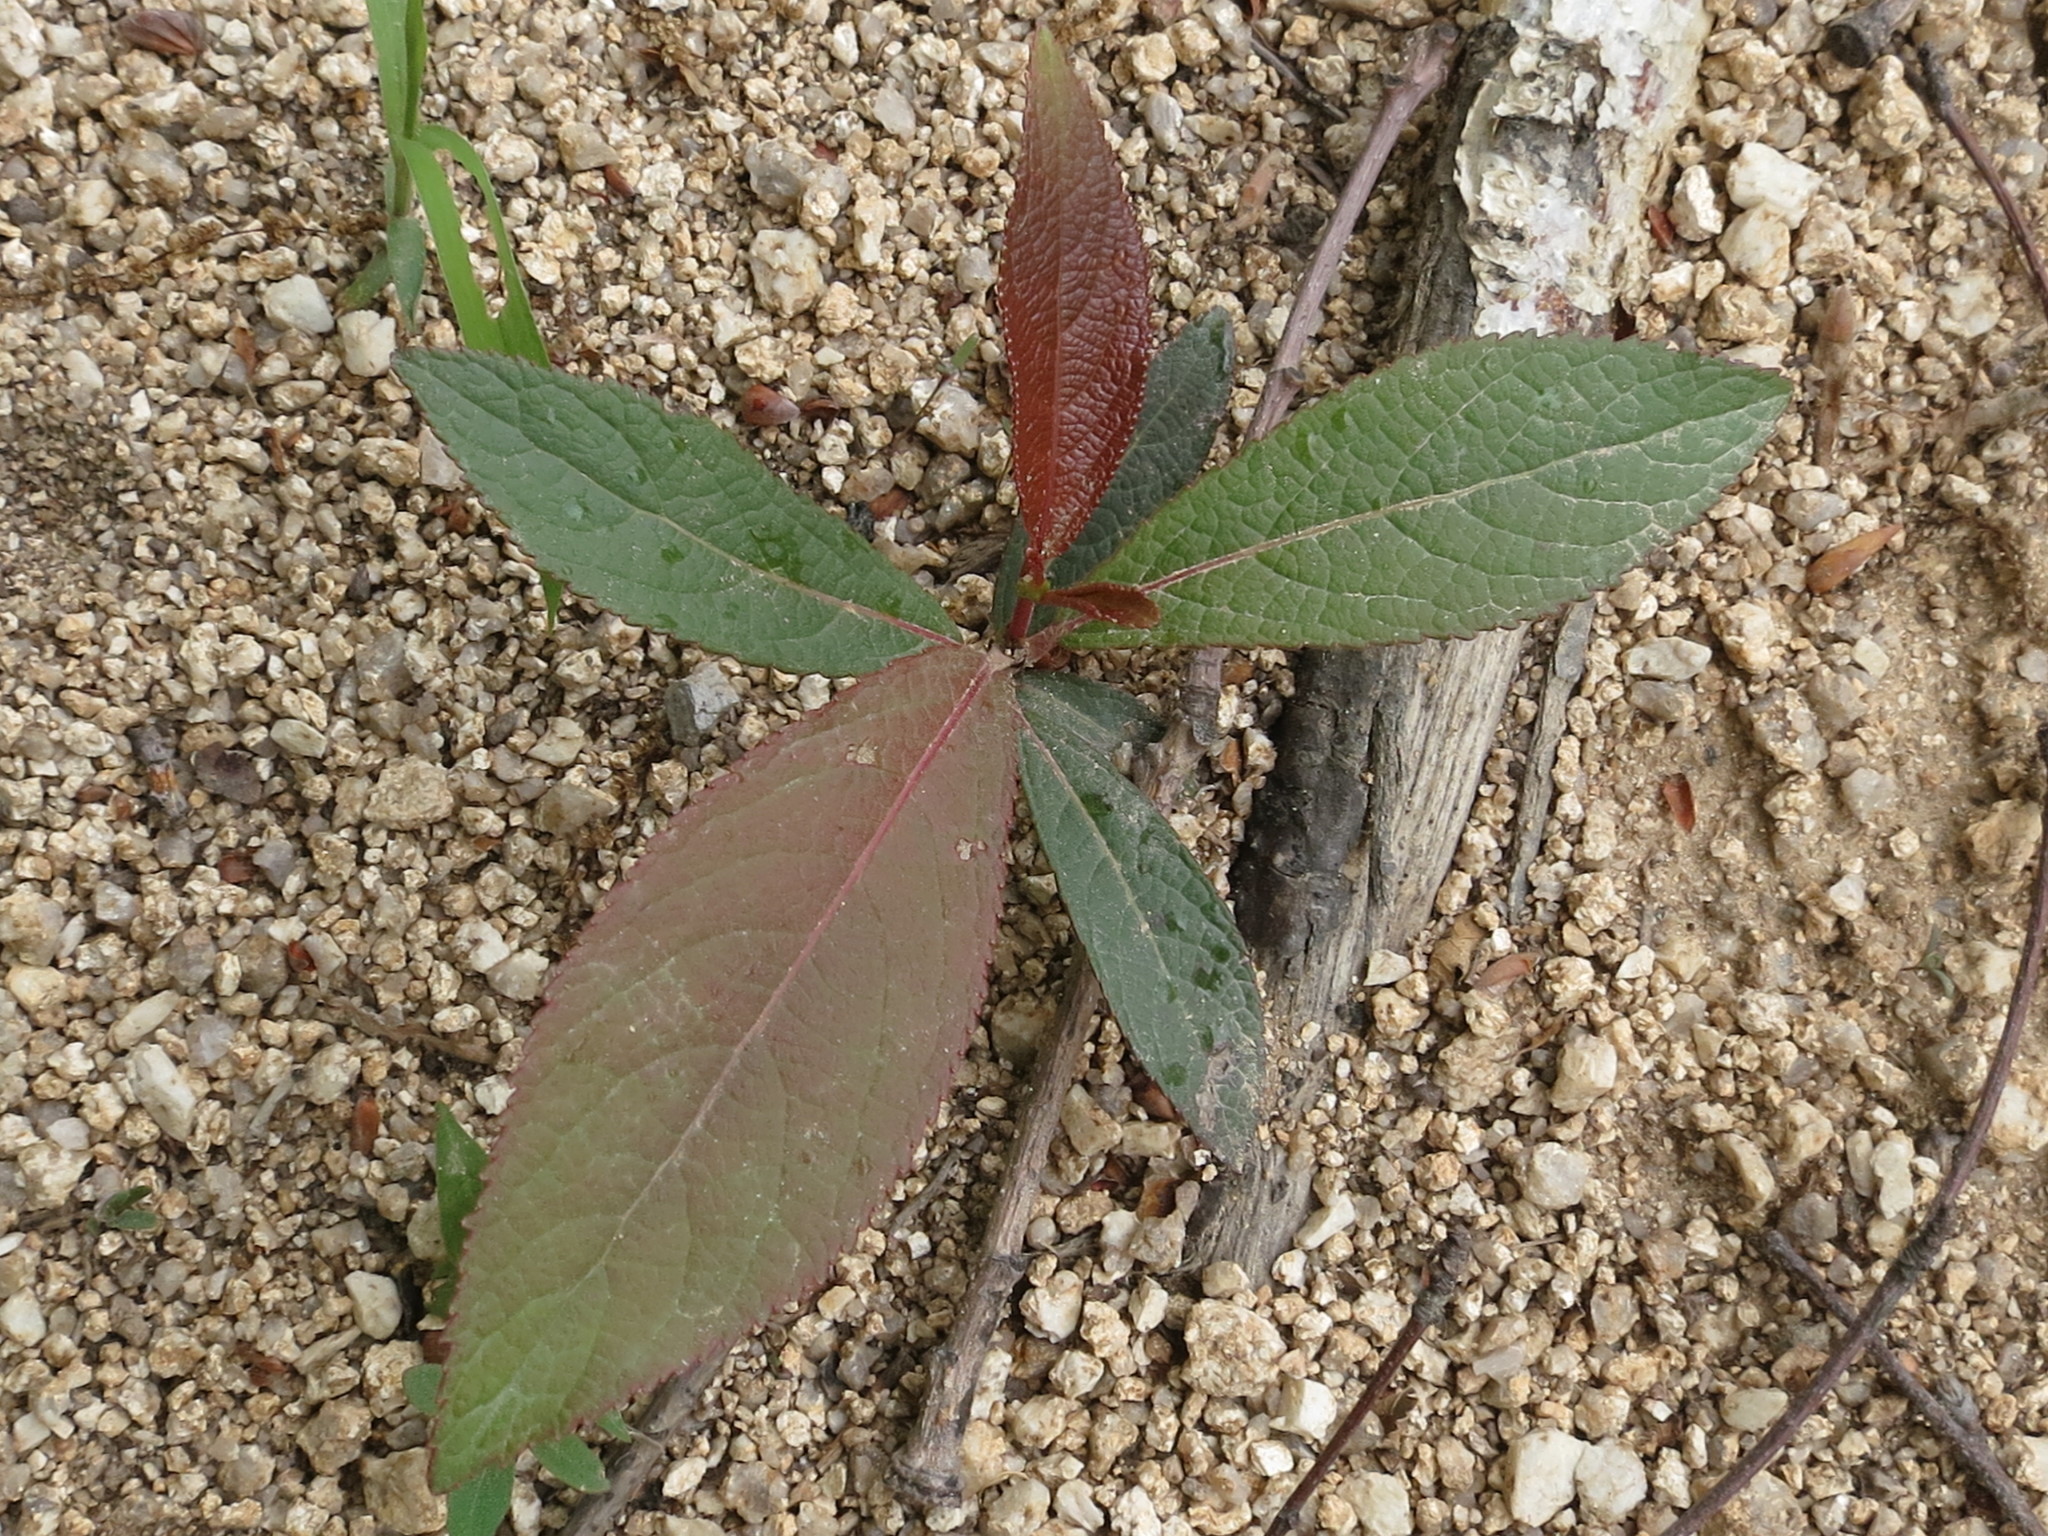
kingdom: Plantae
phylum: Tracheophyta
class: Magnoliopsida
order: Malpighiales
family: Salicaceae
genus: Populus
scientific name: Populus suaveolens
